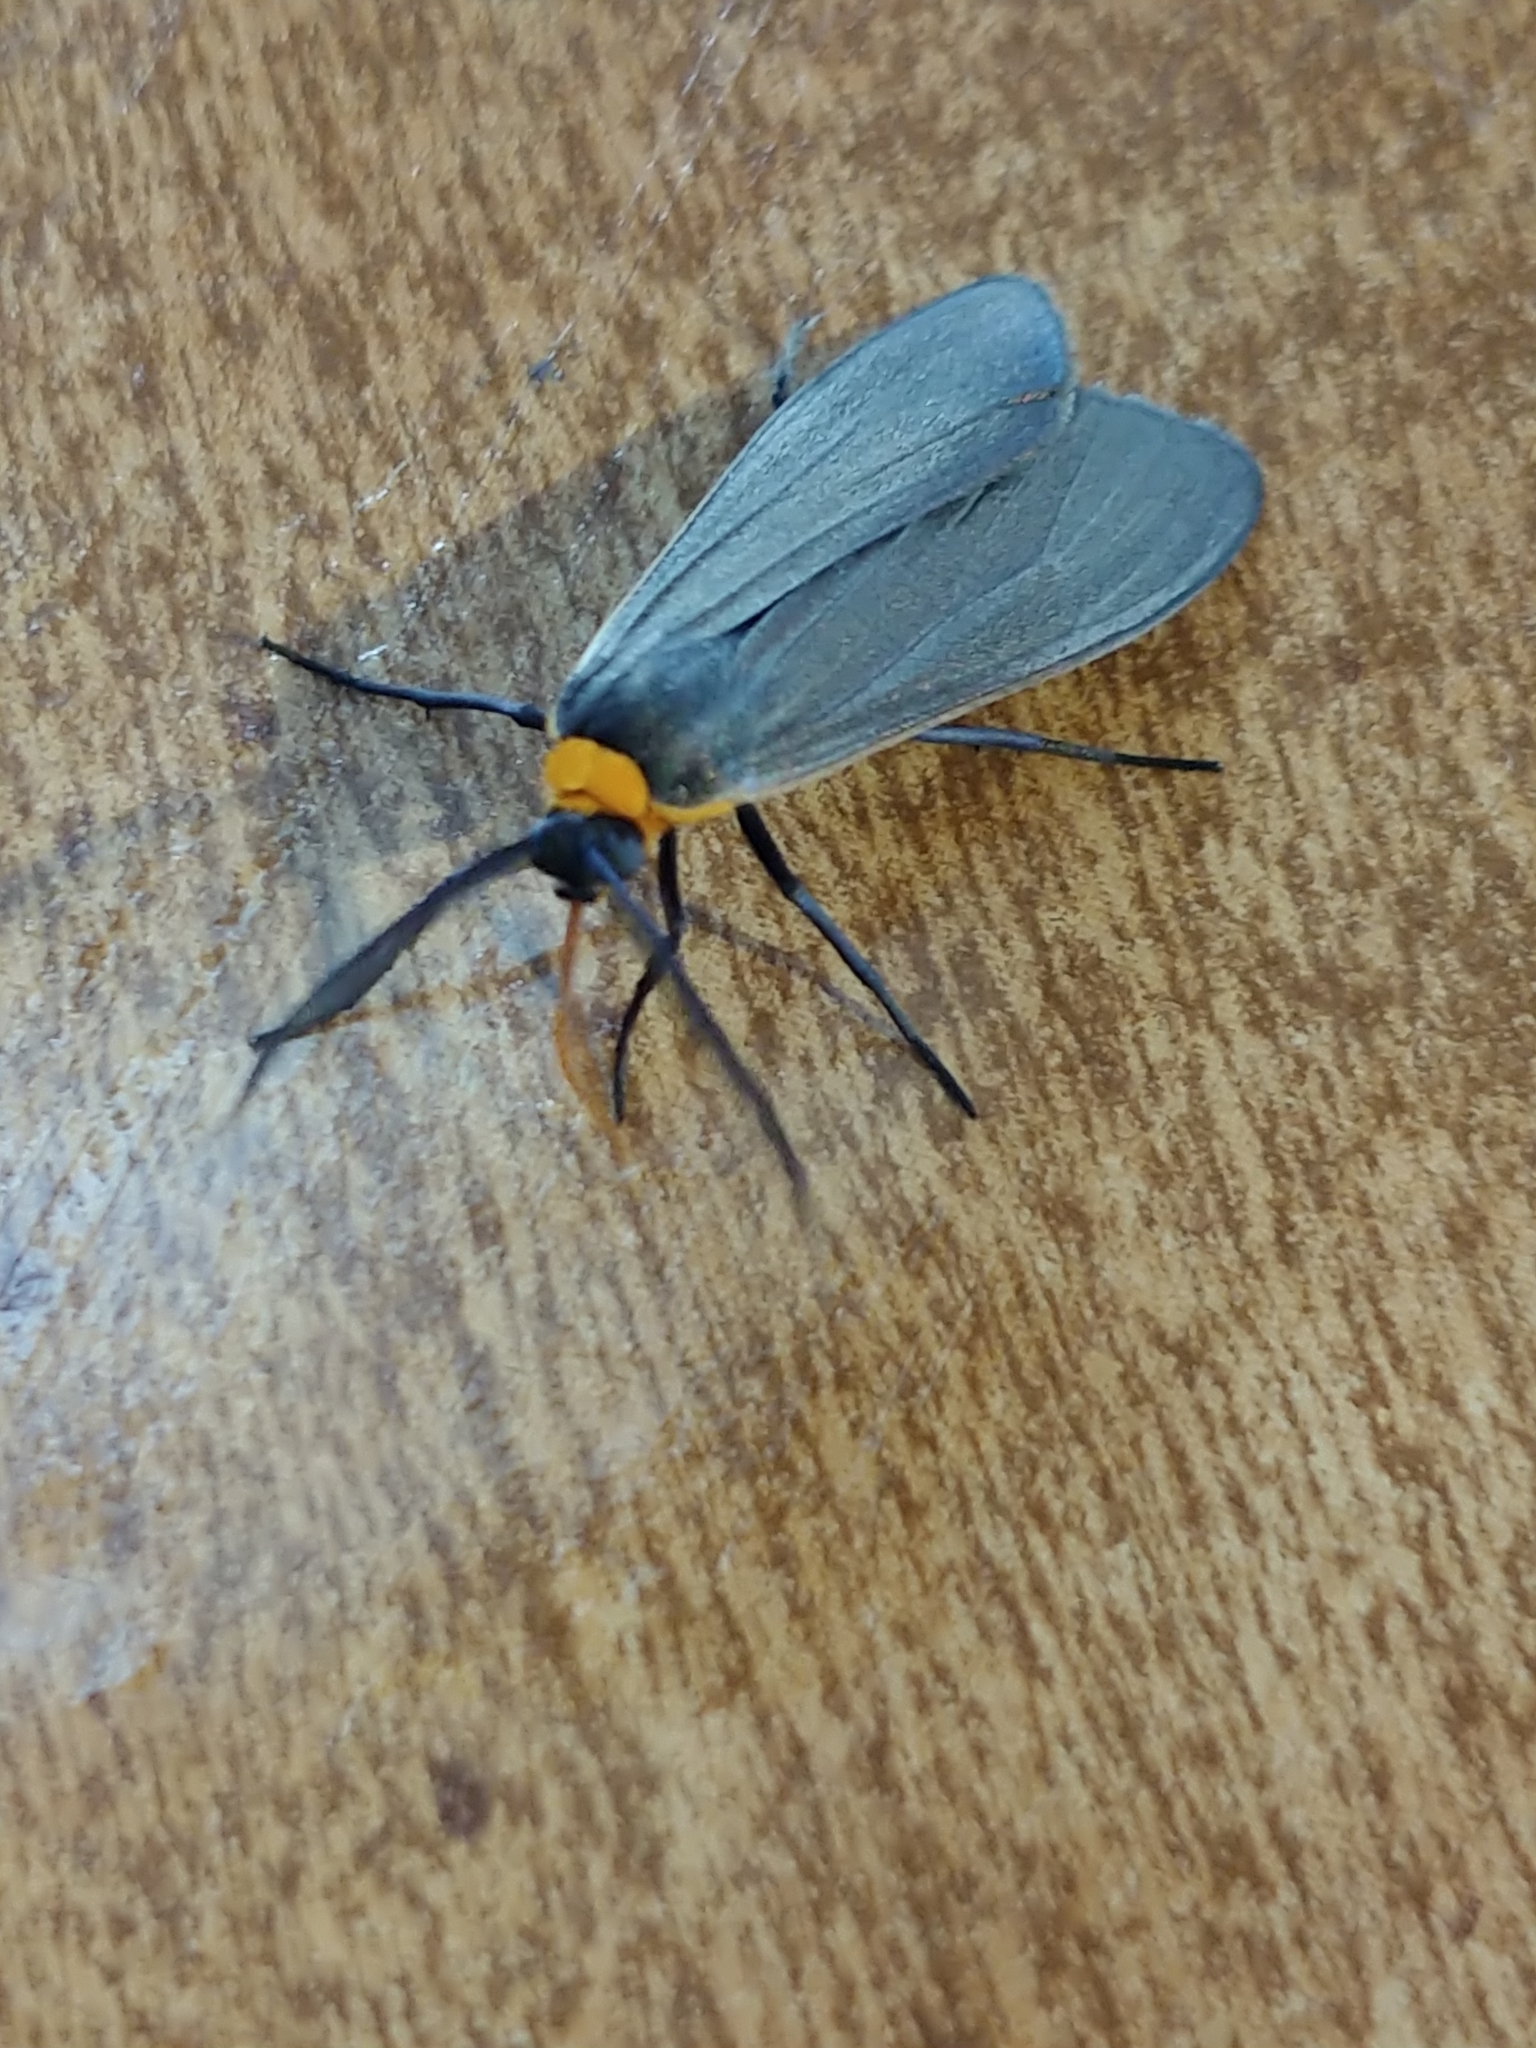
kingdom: Animalia
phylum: Arthropoda
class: Insecta
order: Lepidoptera
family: Erebidae
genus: Cisseps
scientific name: Cisseps fulvicollis
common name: Yellow-collared scape moth
